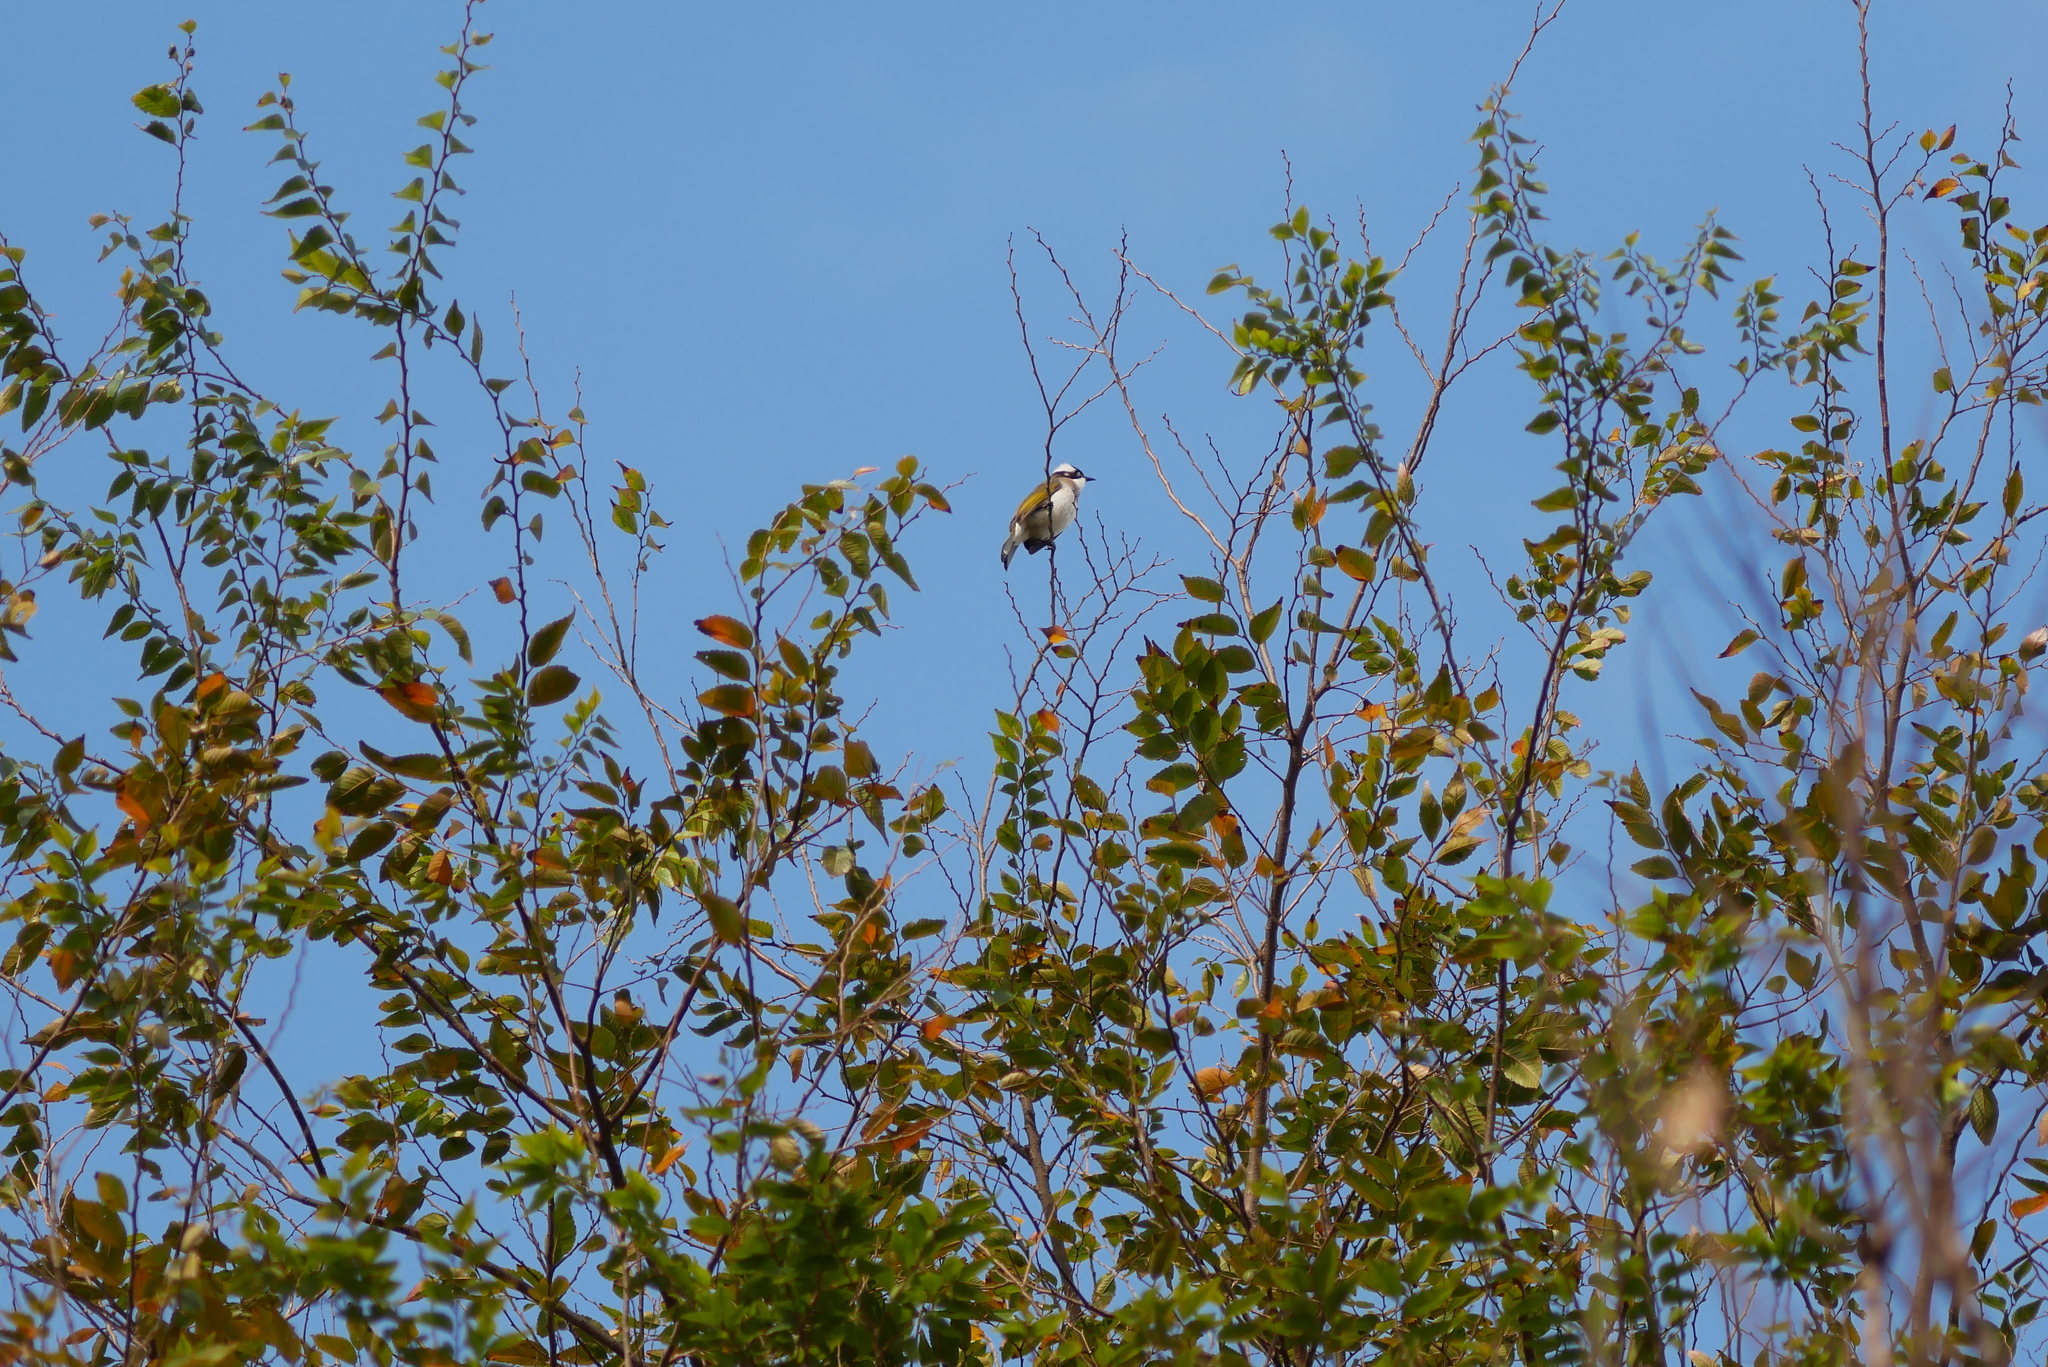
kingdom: Animalia
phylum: Chordata
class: Aves
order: Passeriformes
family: Pycnonotidae
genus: Pycnonotus
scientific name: Pycnonotus sinensis
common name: Light-vented bulbul
